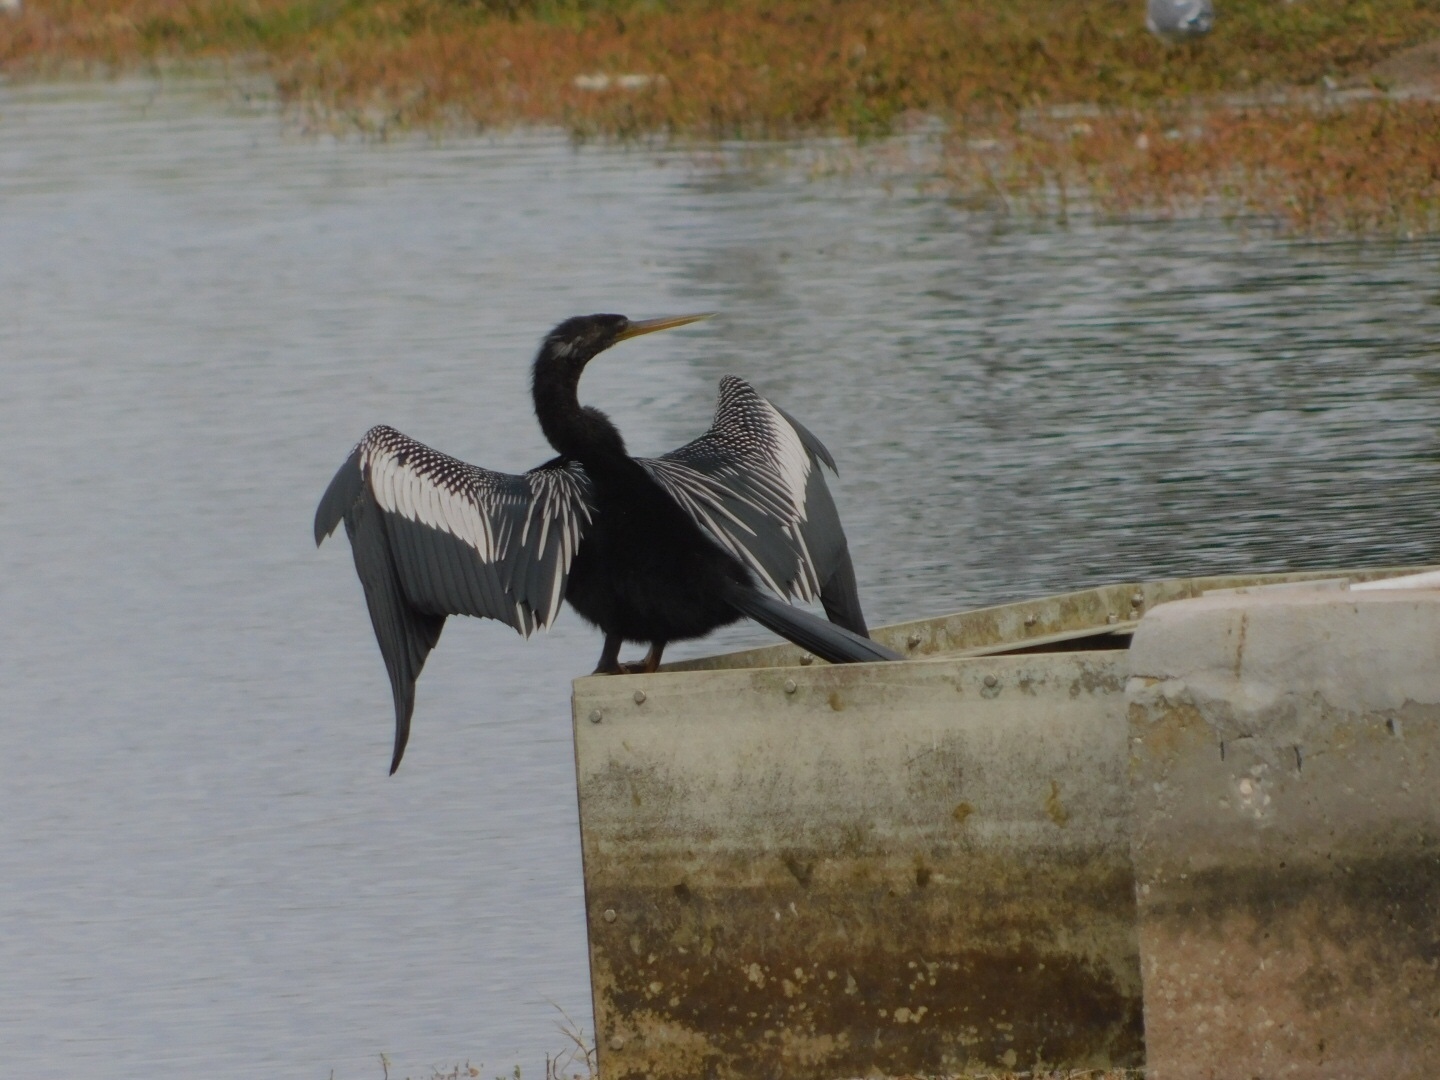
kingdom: Animalia
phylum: Chordata
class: Aves
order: Suliformes
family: Anhingidae
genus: Anhinga
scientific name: Anhinga anhinga
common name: Anhinga
